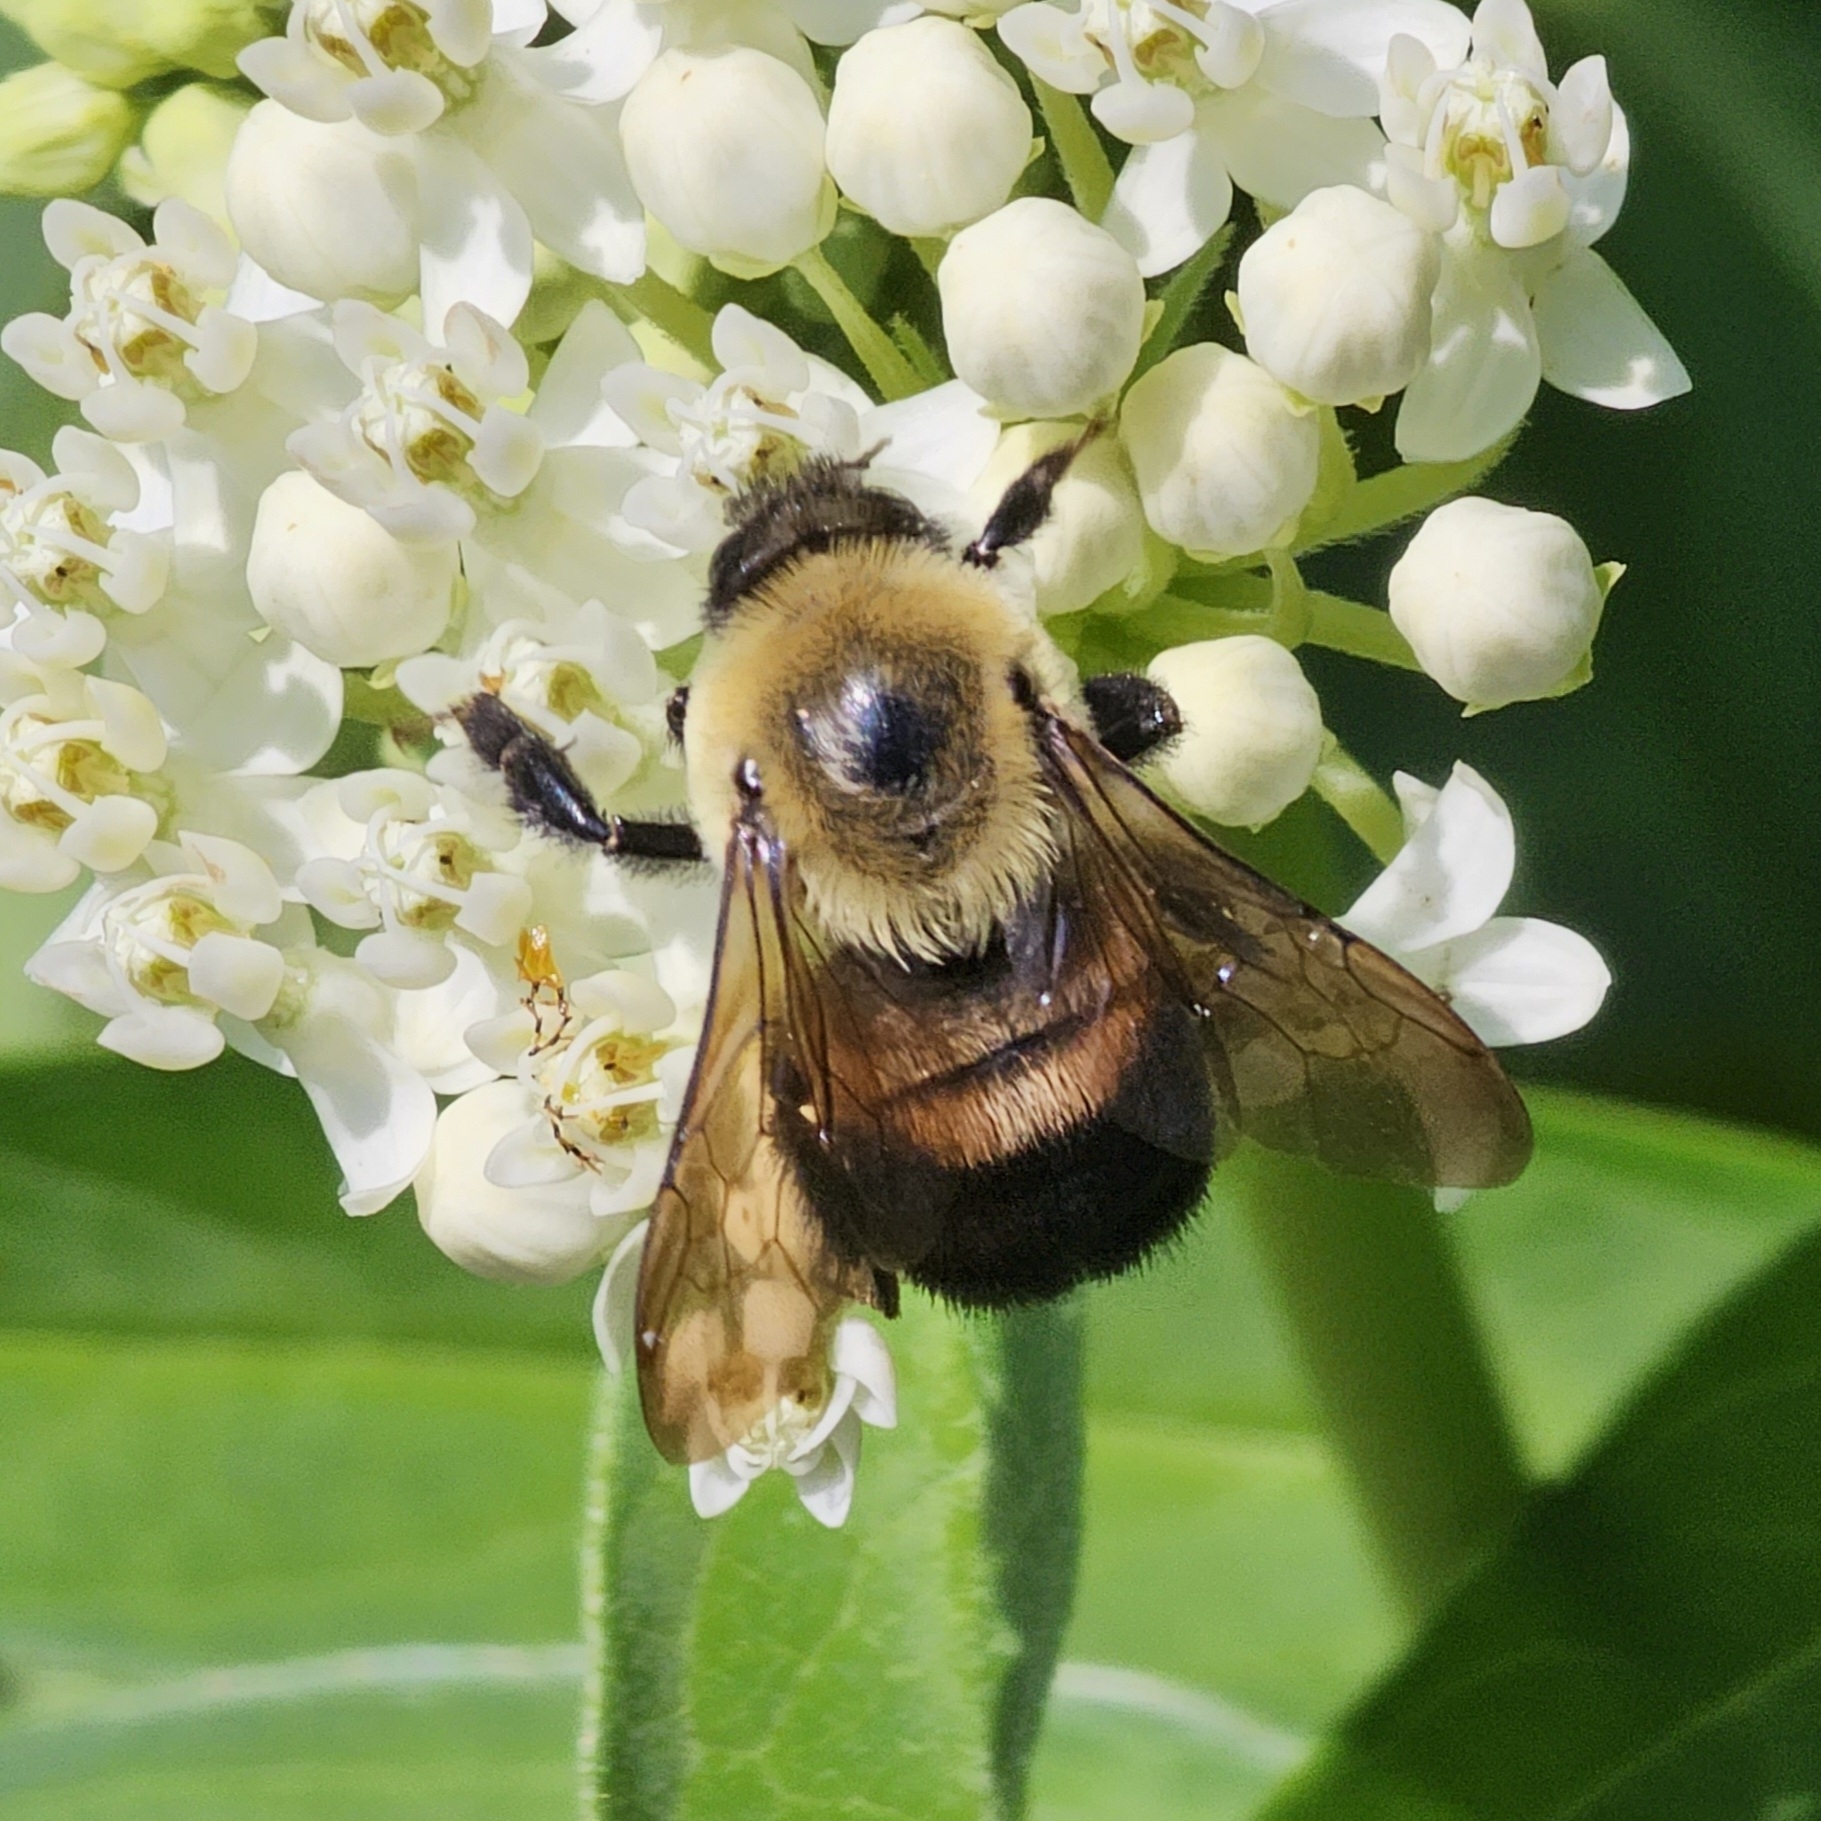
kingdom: Animalia
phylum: Arthropoda
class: Insecta
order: Hymenoptera
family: Apidae
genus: Bombus
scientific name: Bombus griseocollis
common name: Brown-belted bumble bee
